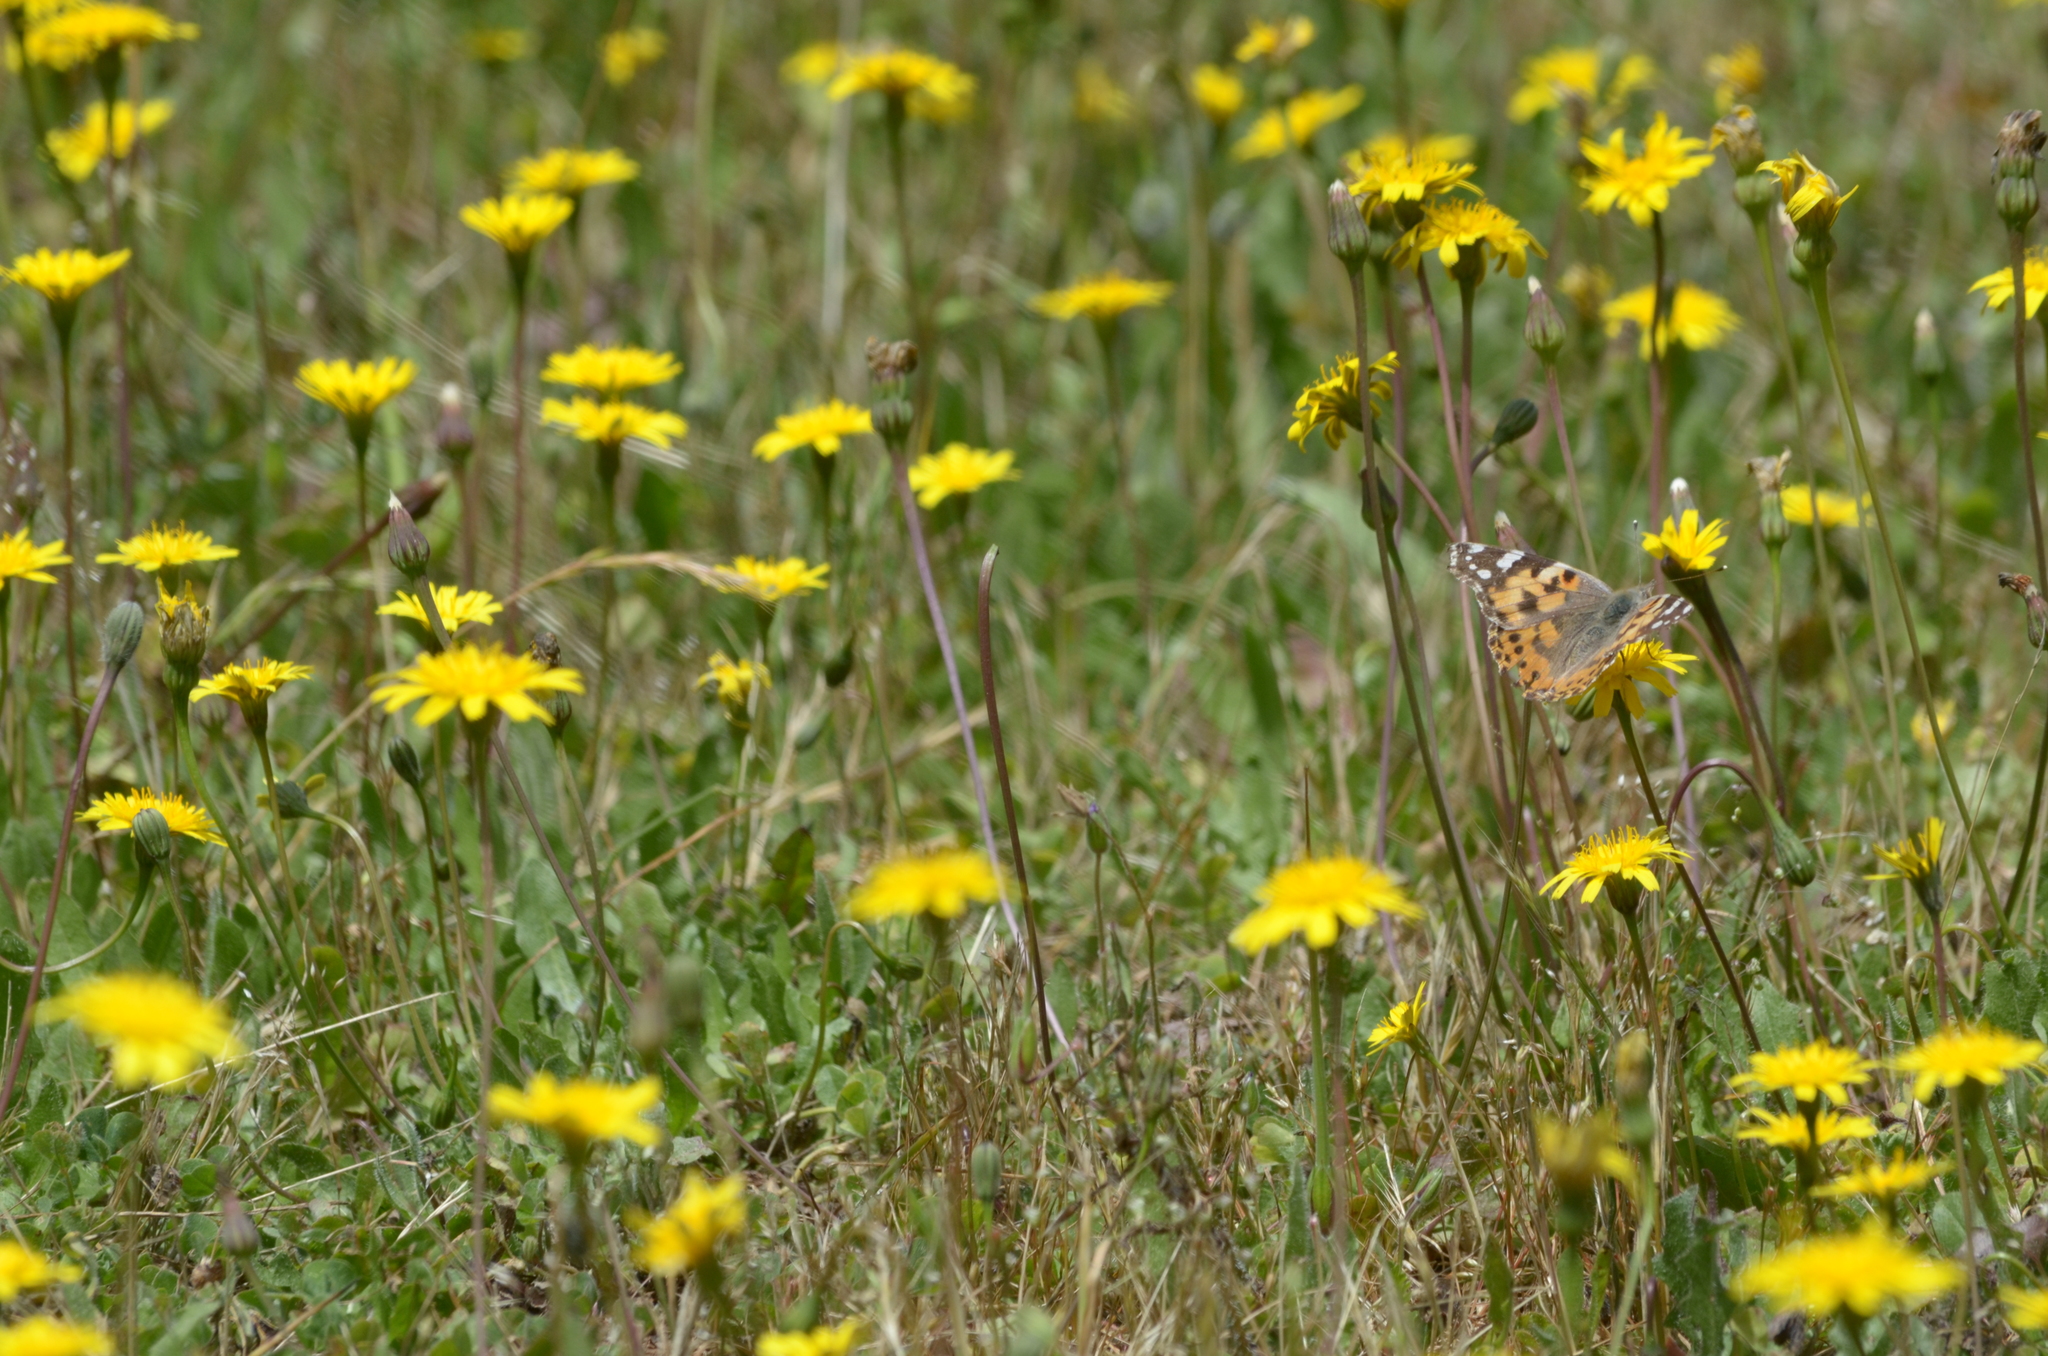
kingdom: Animalia
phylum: Arthropoda
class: Insecta
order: Lepidoptera
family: Nymphalidae
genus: Vanessa
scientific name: Vanessa cardui
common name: Painted lady
